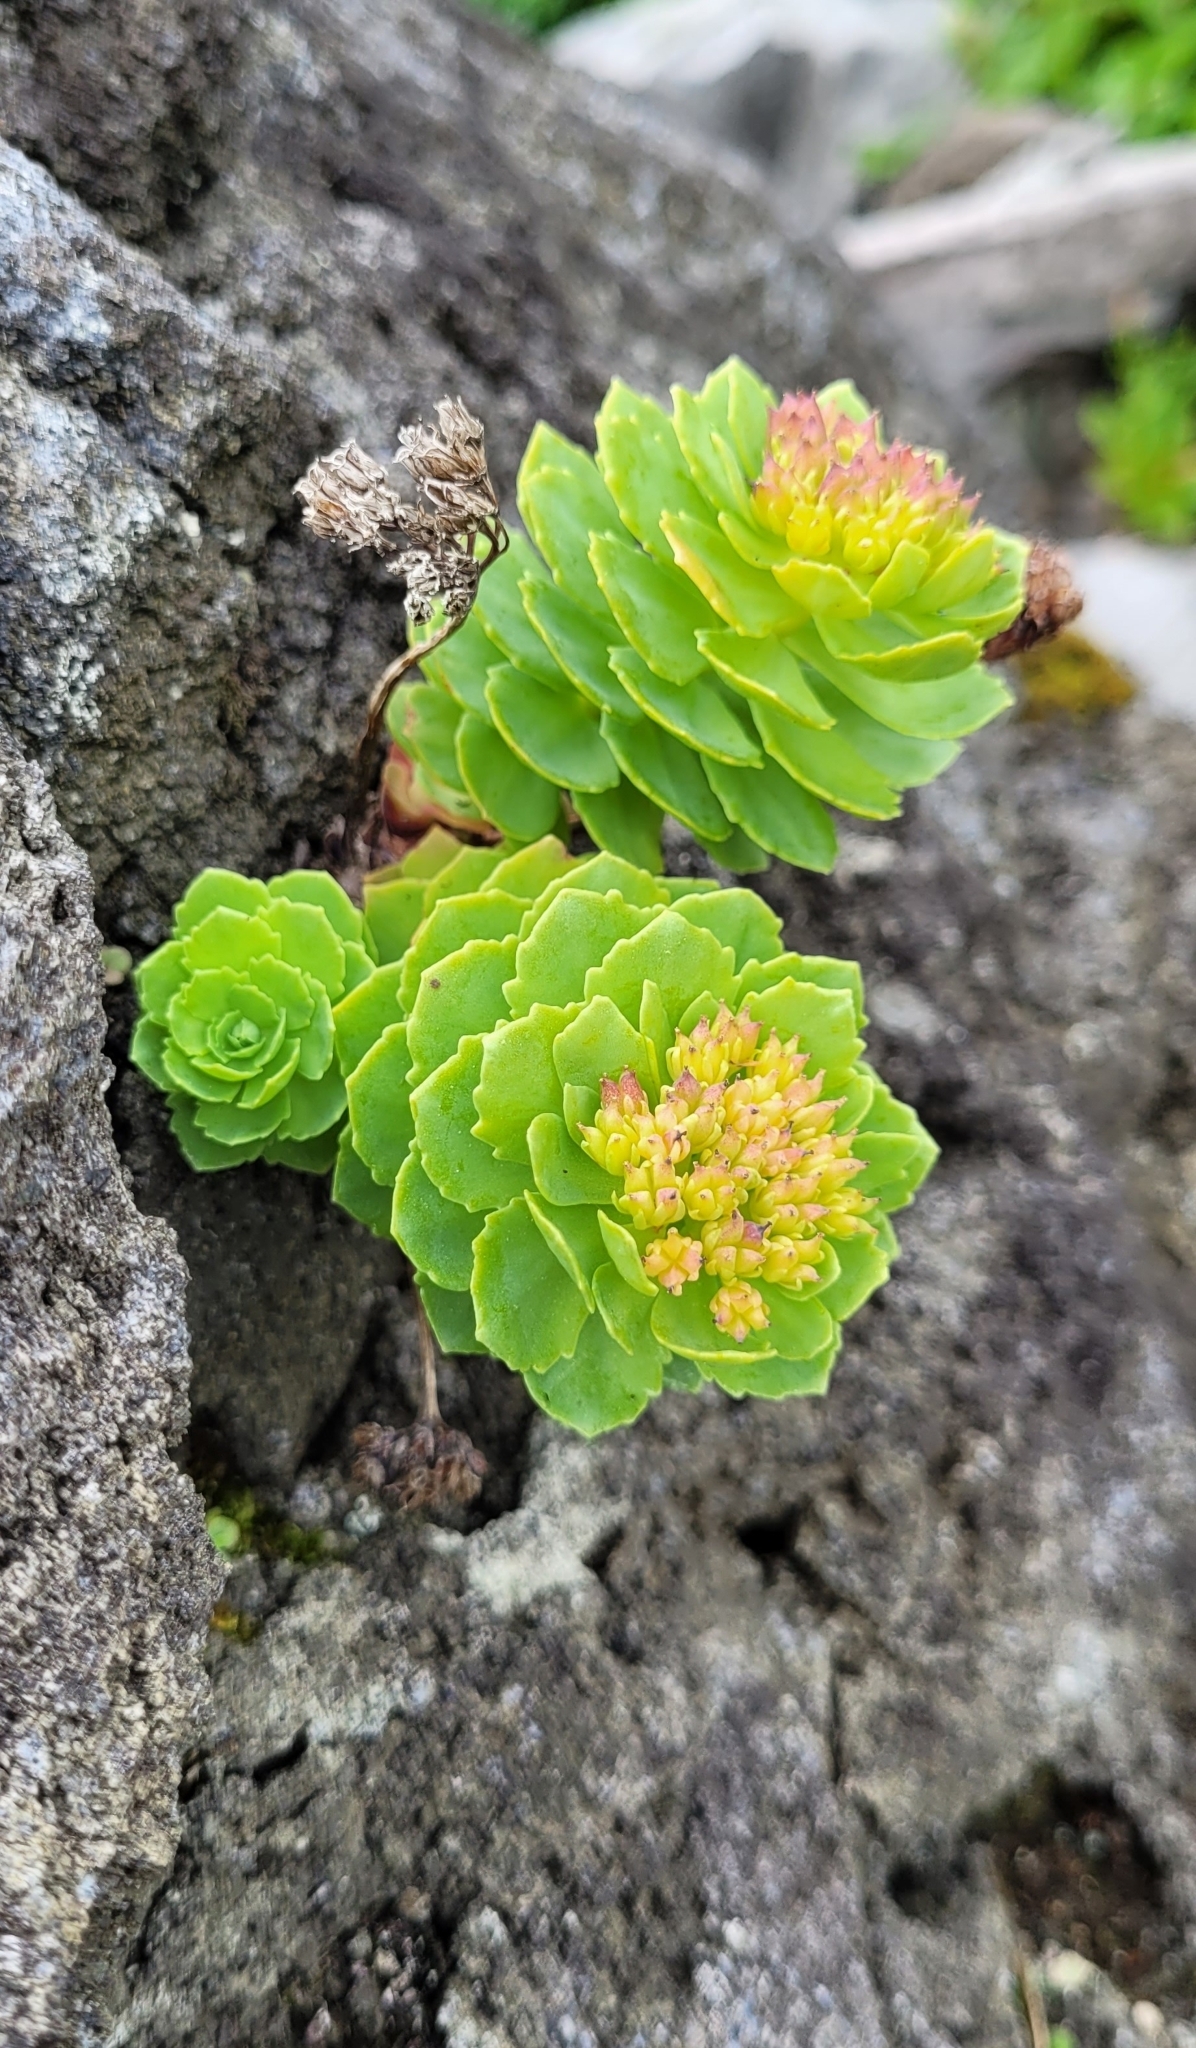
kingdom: Plantae
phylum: Tracheophyta
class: Magnoliopsida
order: Saxifragales
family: Crassulaceae
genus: Rhodiola
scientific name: Rhodiola rosea
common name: Roseroot
